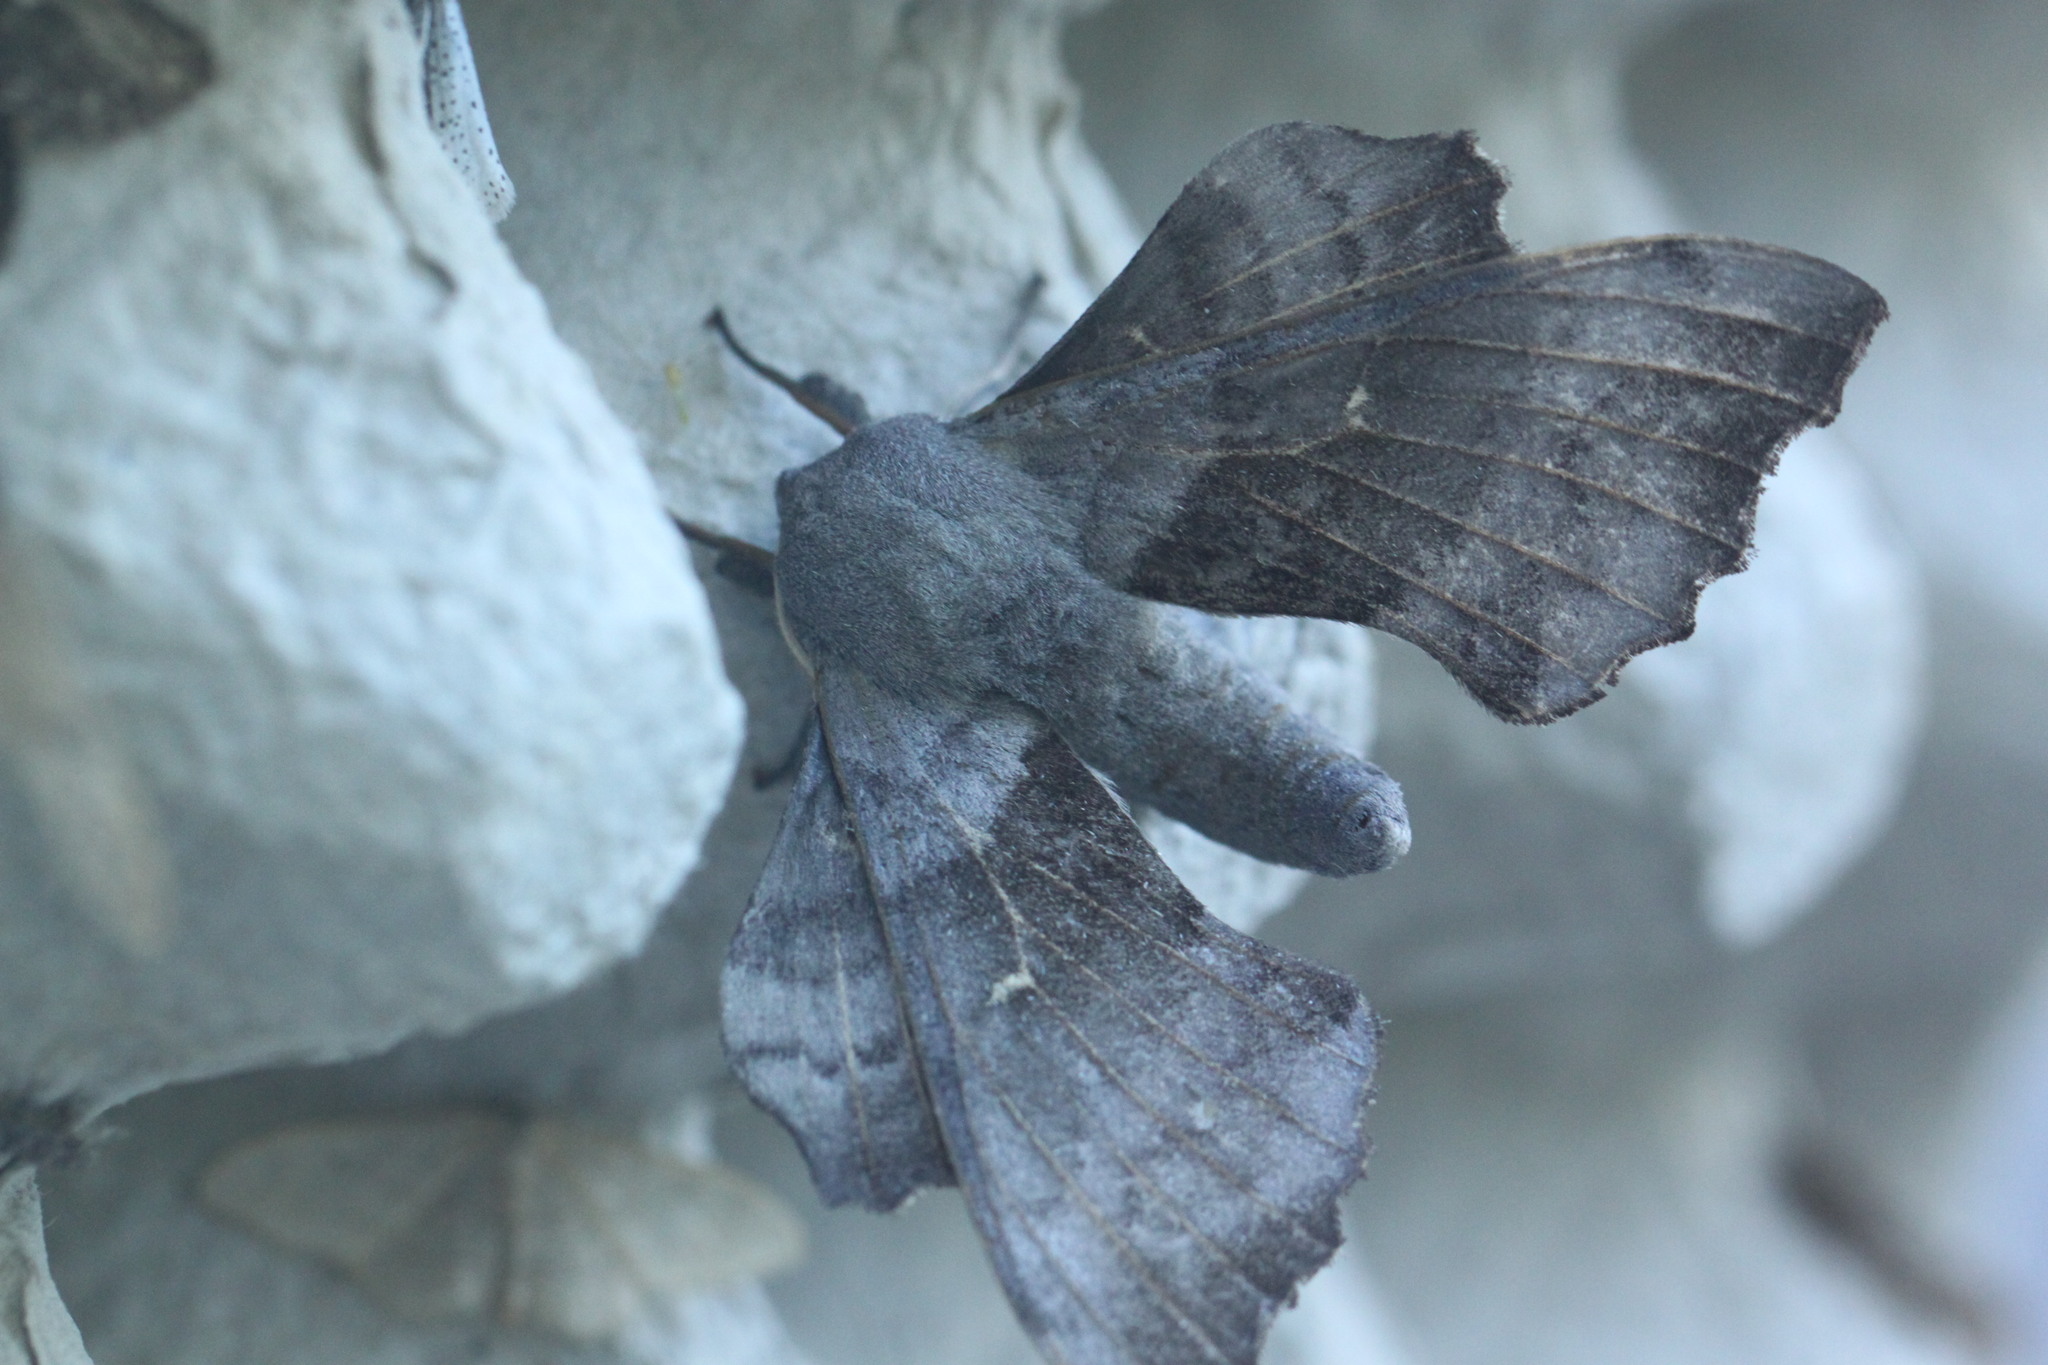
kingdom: Animalia
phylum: Arthropoda
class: Insecta
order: Lepidoptera
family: Sphingidae
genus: Laothoe
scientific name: Laothoe populi
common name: Poplar hawk-moth
